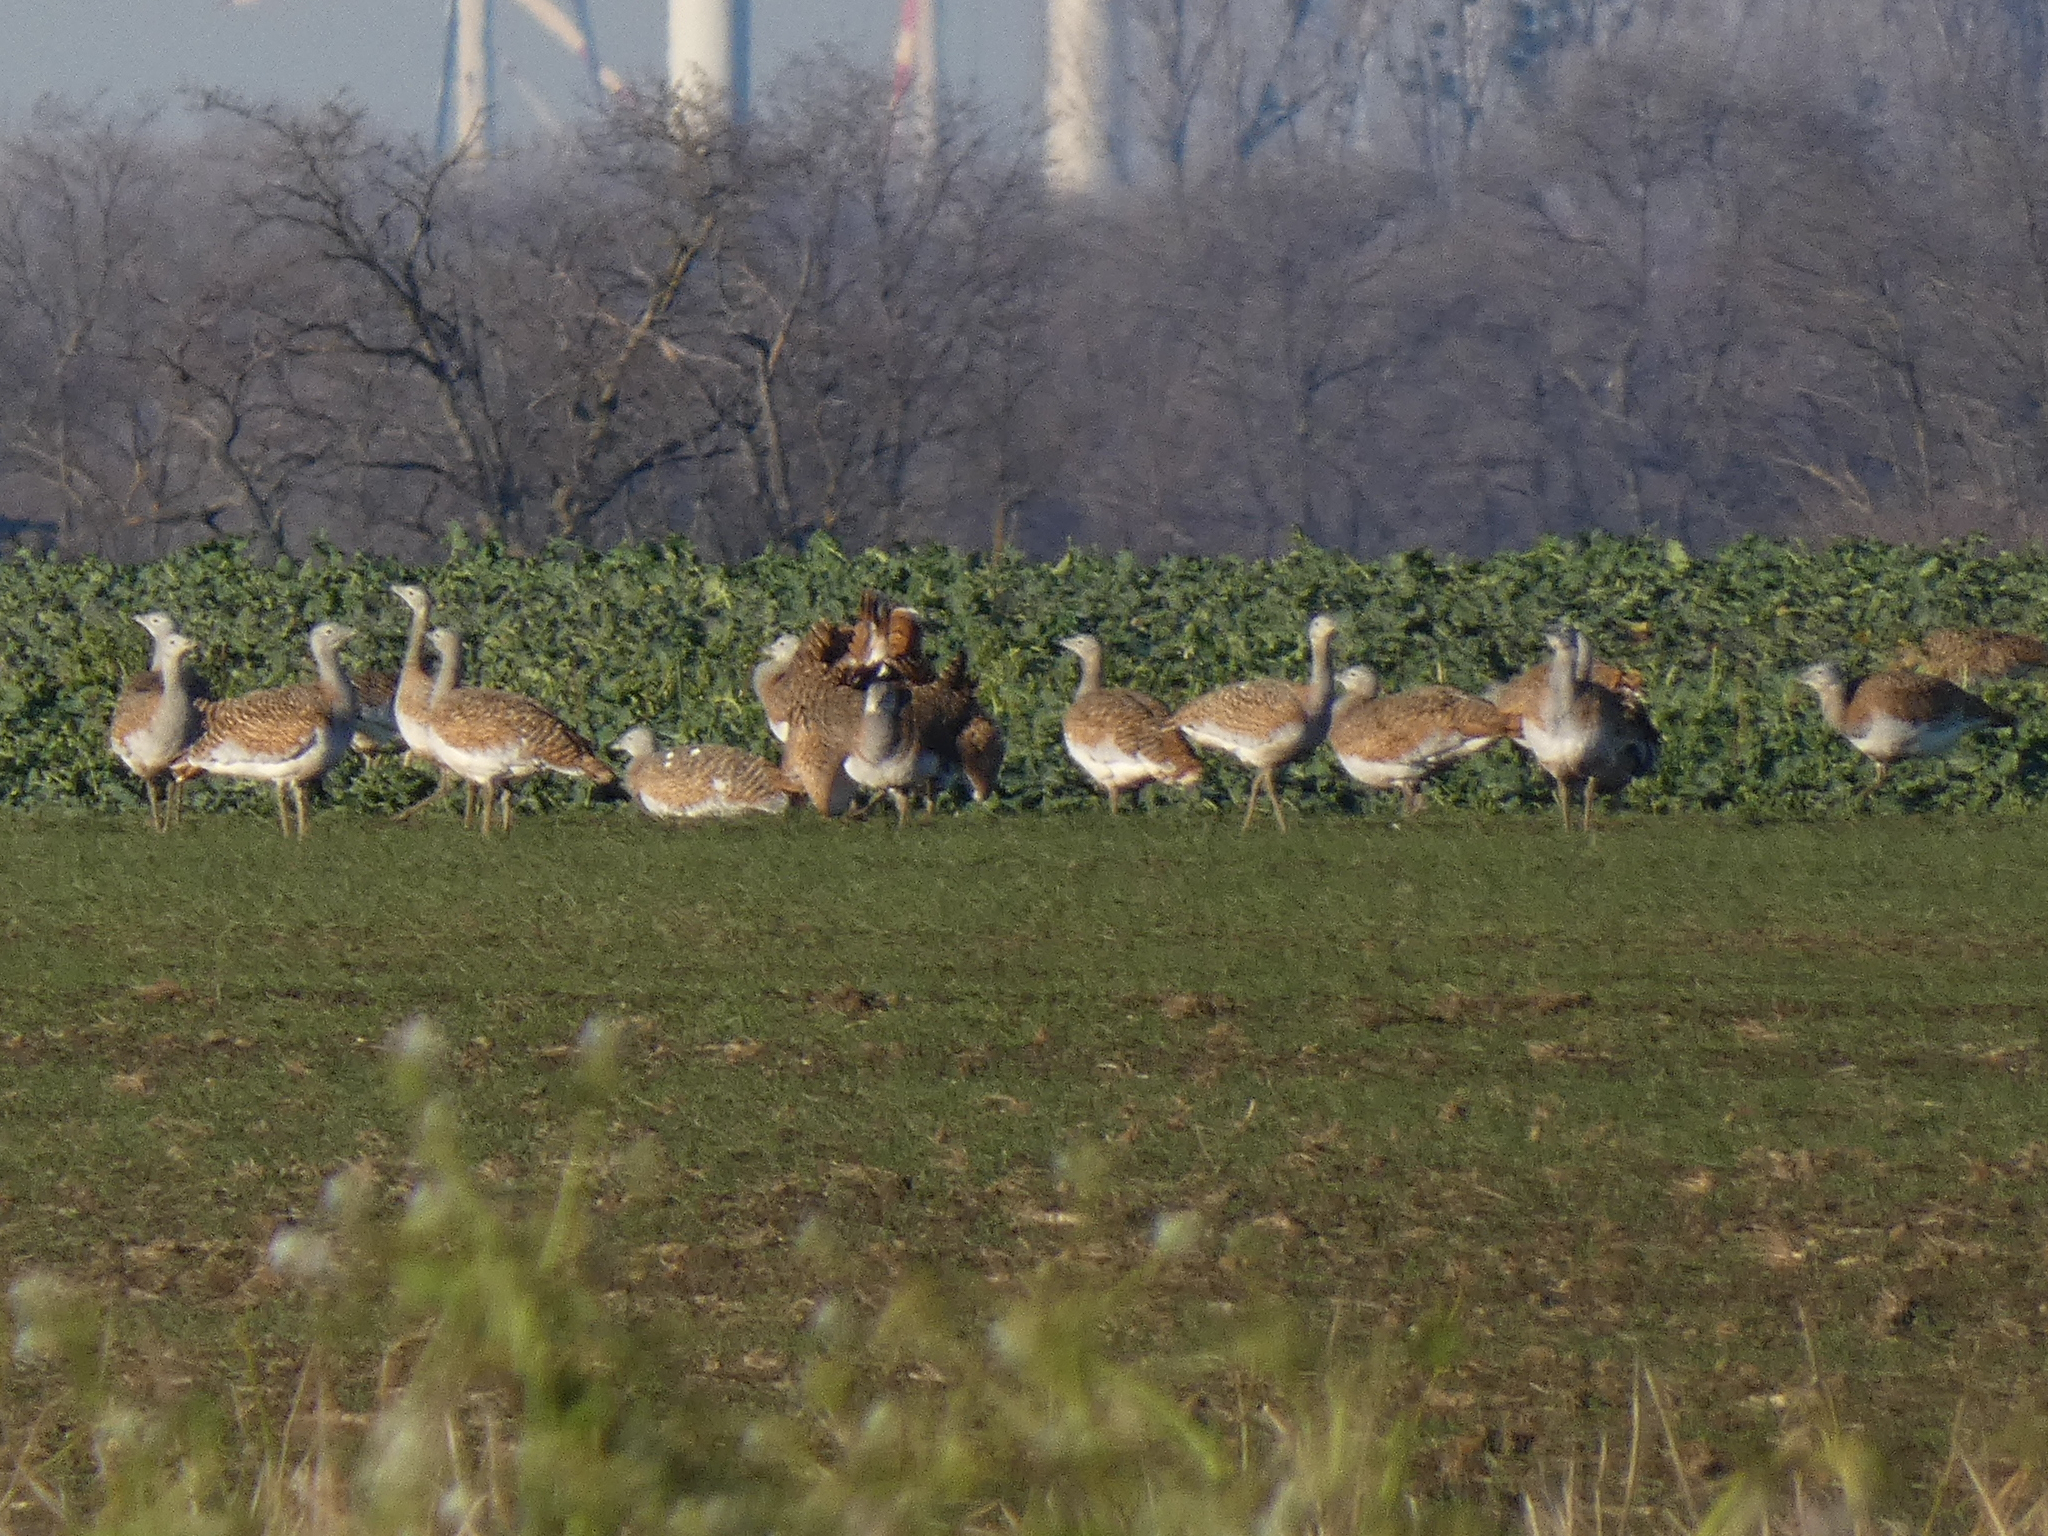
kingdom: Animalia
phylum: Chordata
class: Aves
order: Otidiformes
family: Otididae
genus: Otis
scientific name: Otis tarda
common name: Great bustard
